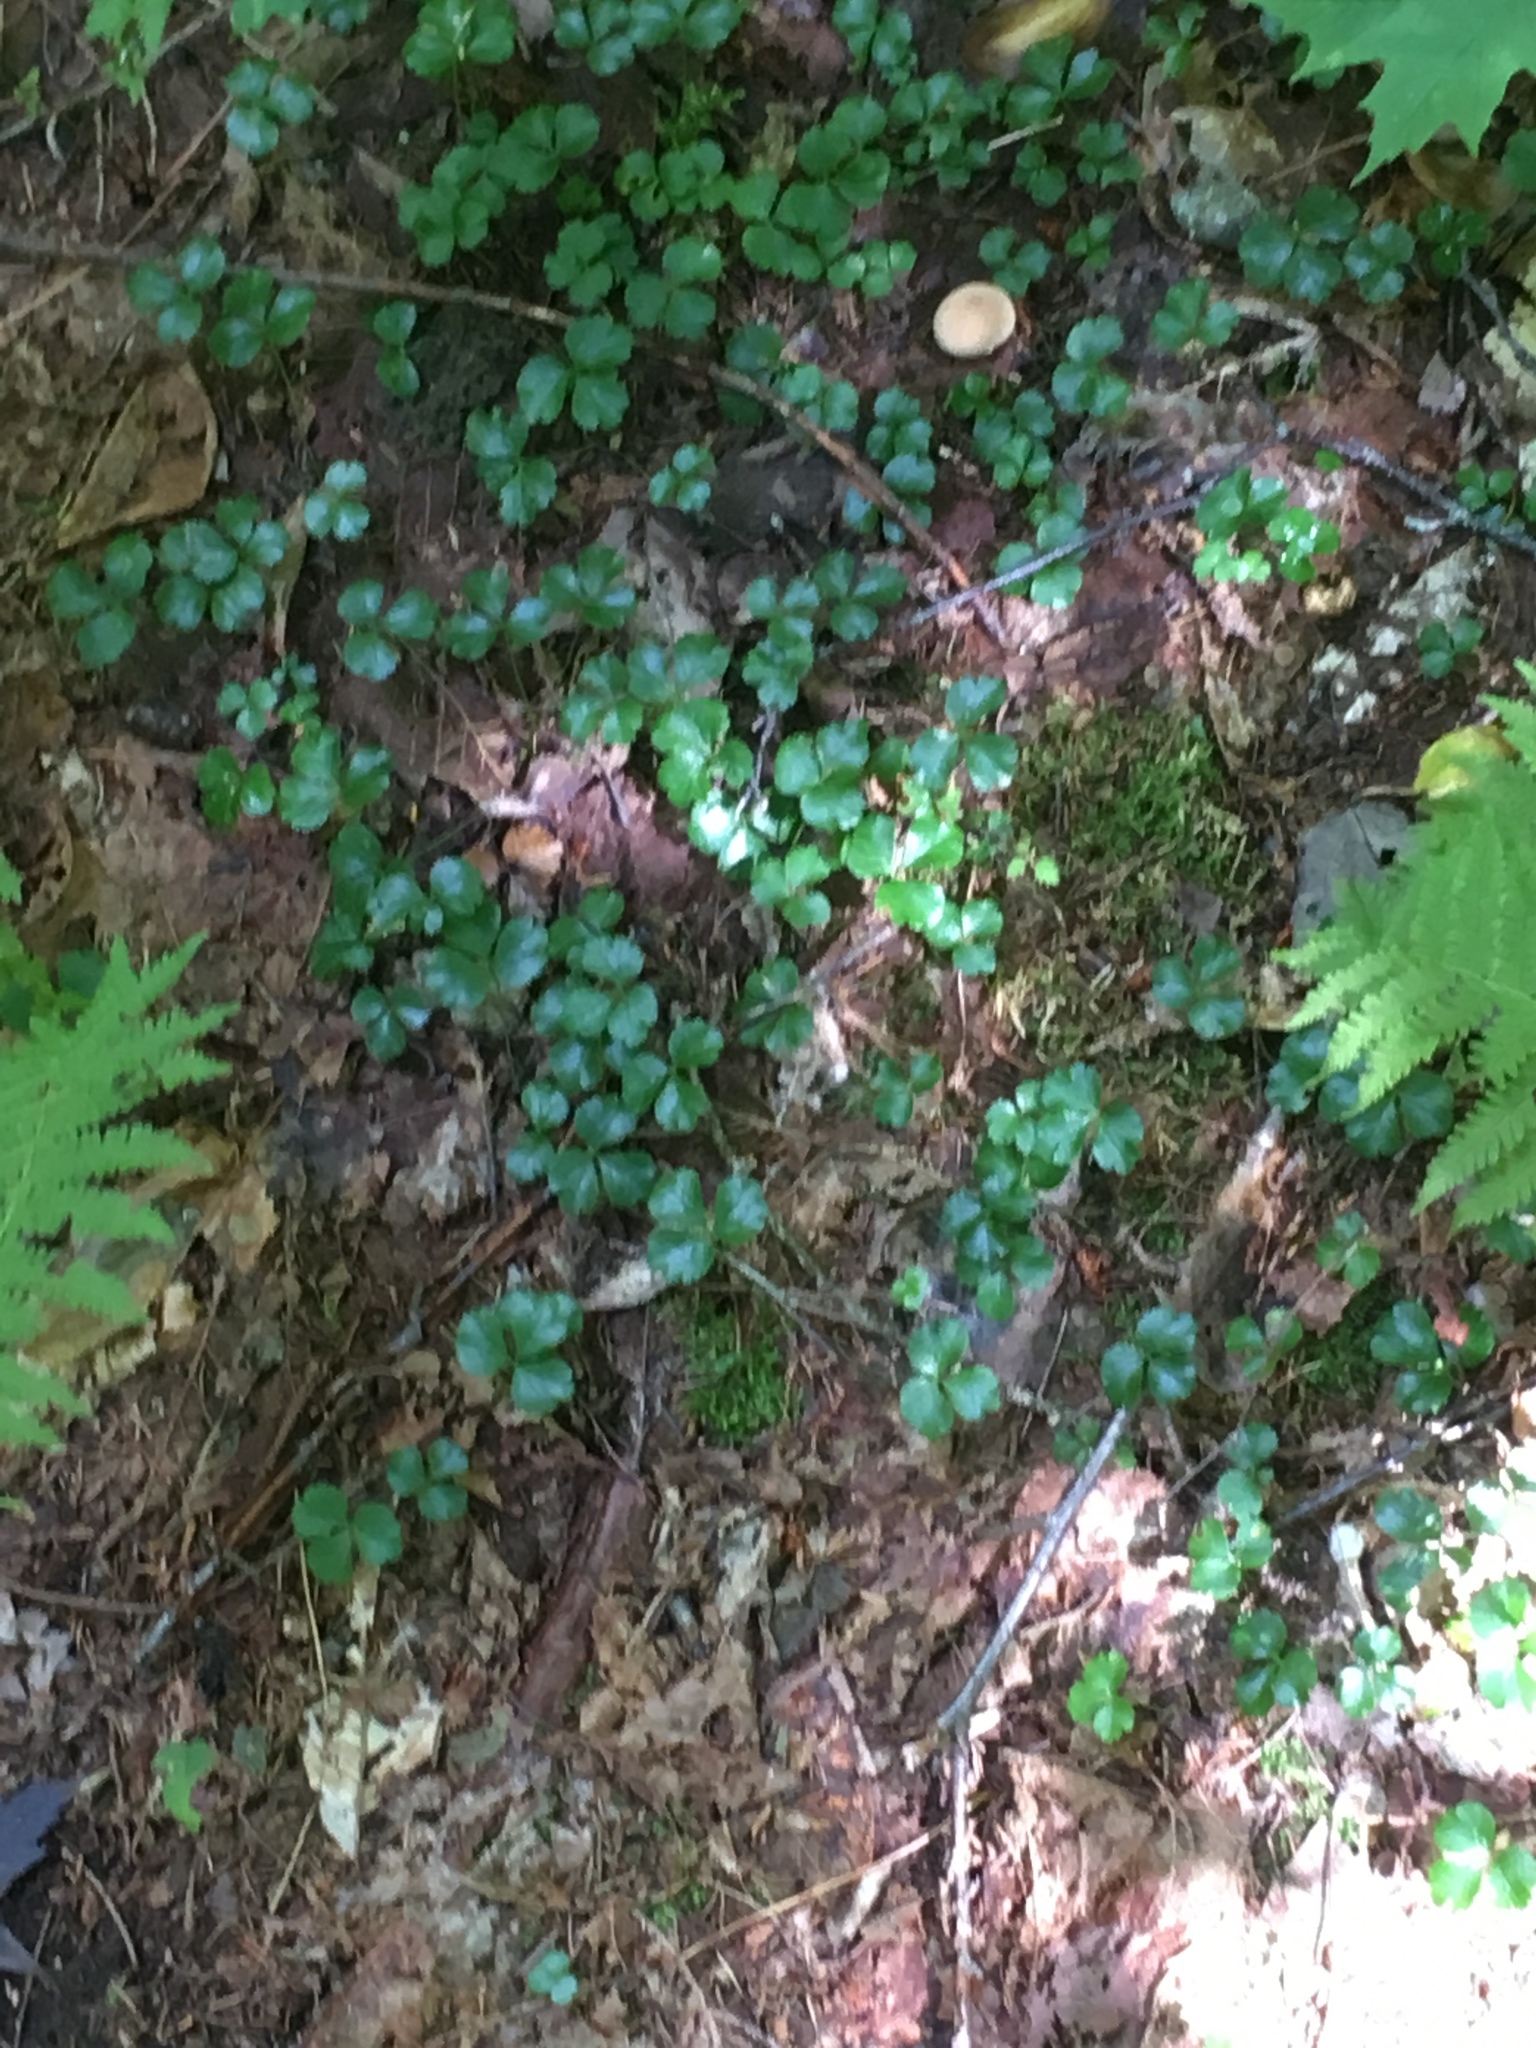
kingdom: Plantae
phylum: Tracheophyta
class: Magnoliopsida
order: Ranunculales
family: Ranunculaceae
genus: Coptis
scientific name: Coptis trifolia
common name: Canker-root
